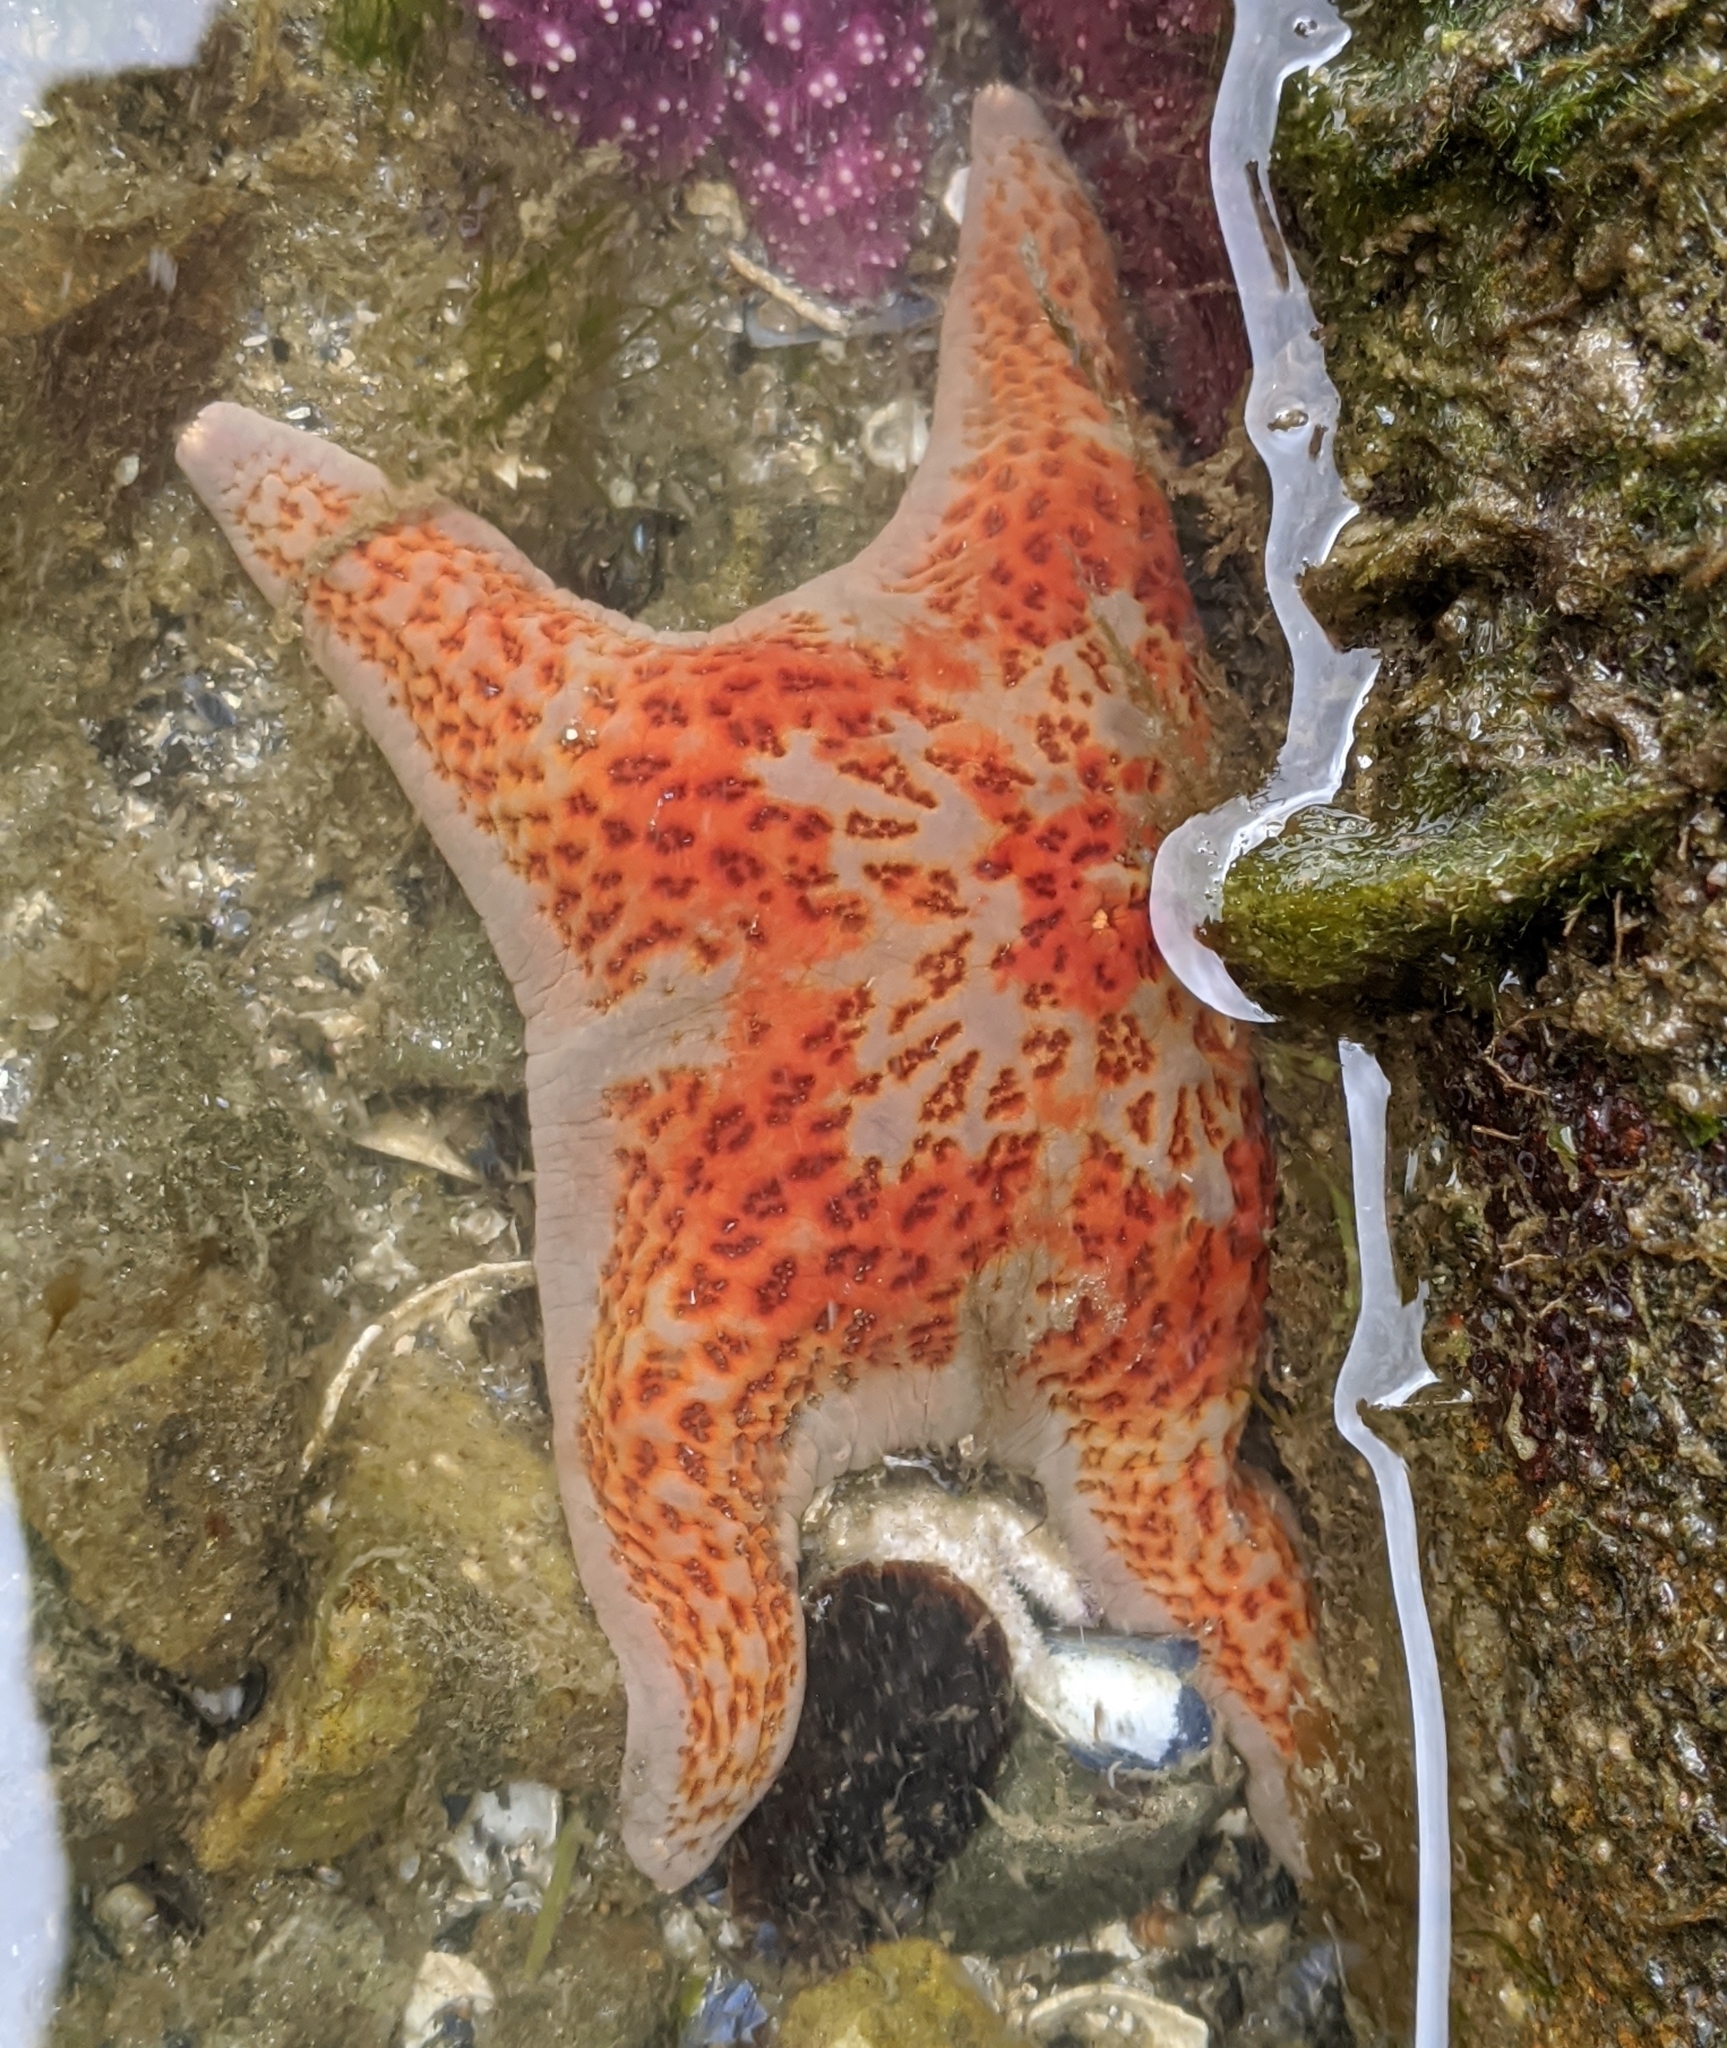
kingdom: Animalia
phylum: Echinodermata
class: Asteroidea
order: Valvatida
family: Asteropseidae
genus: Dermasterias
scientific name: Dermasterias imbricata
